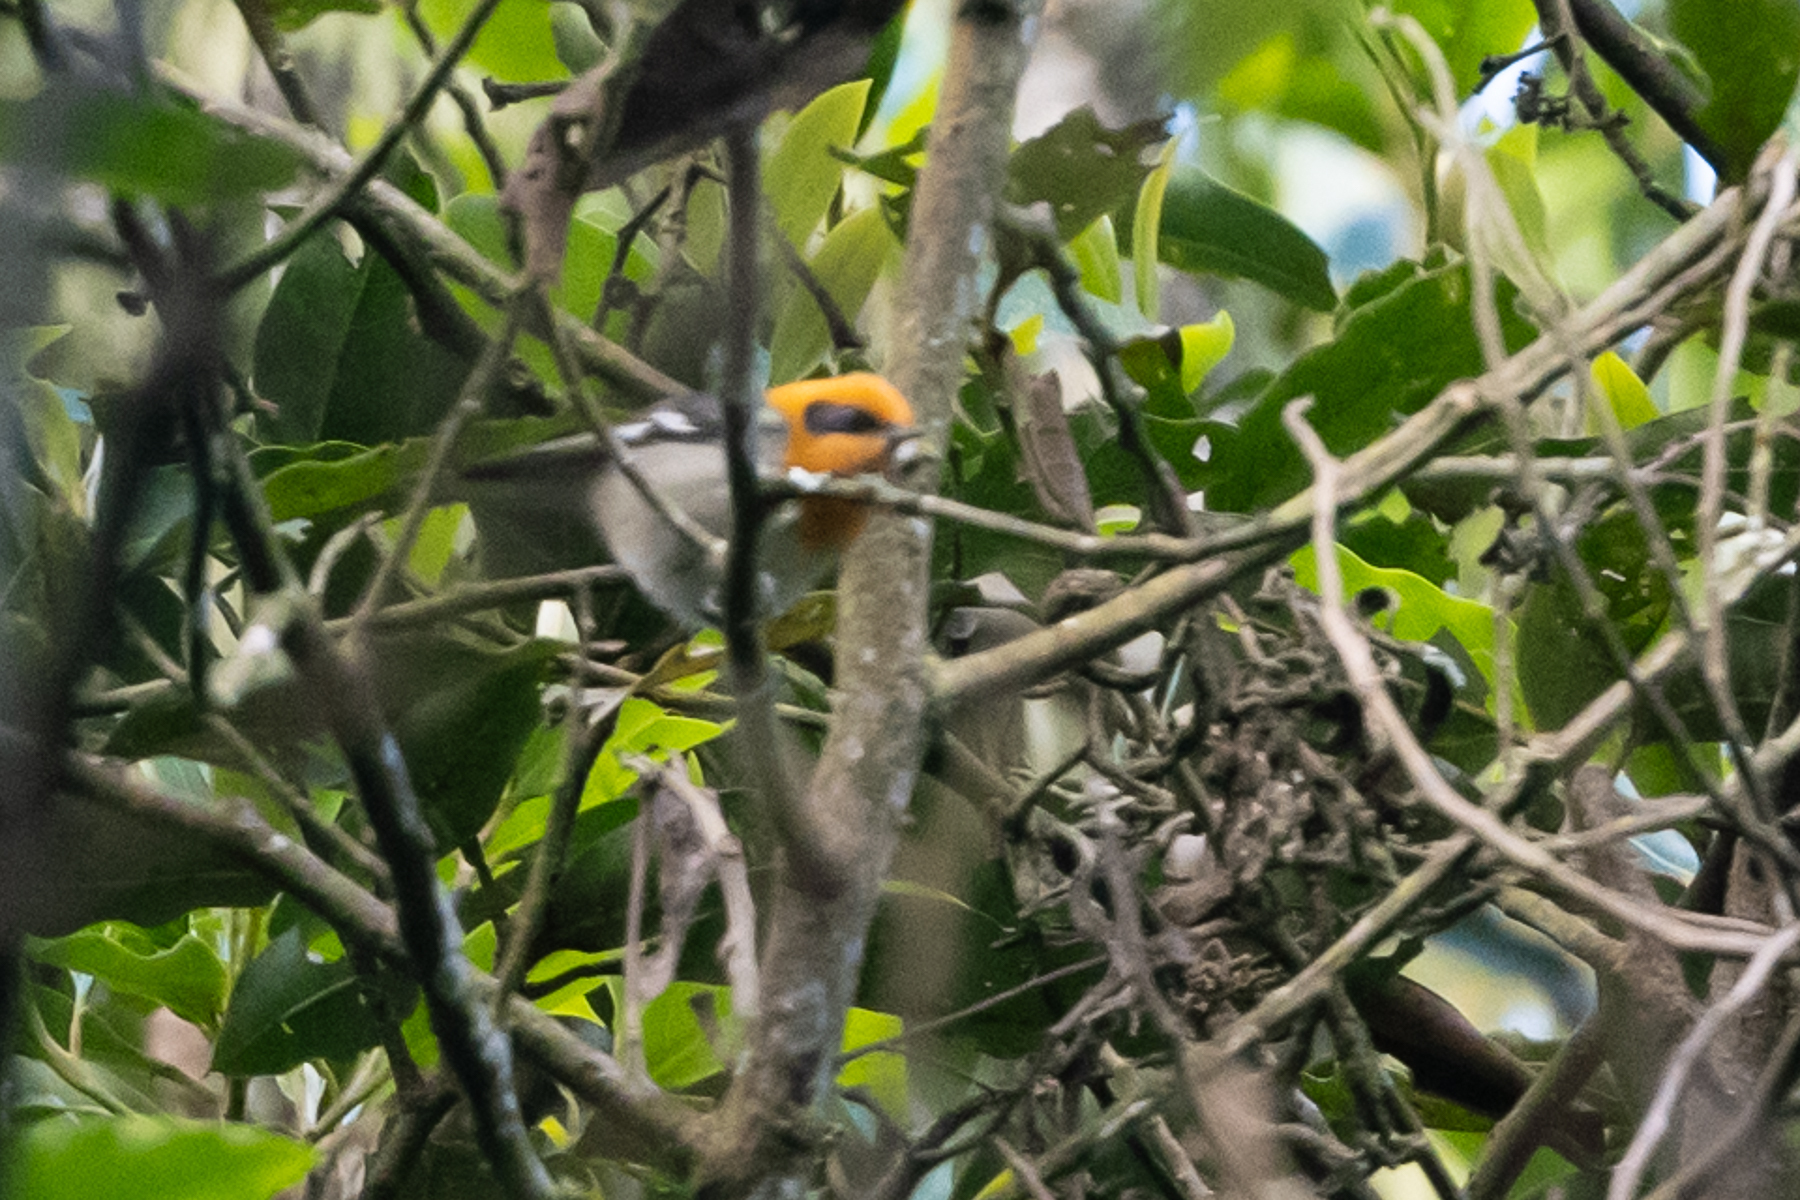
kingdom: Animalia
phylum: Chordata
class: Aves
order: Passeriformes
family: Peucedramidae
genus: Peucedramus
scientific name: Peucedramus taeniatus
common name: Olive warbler
